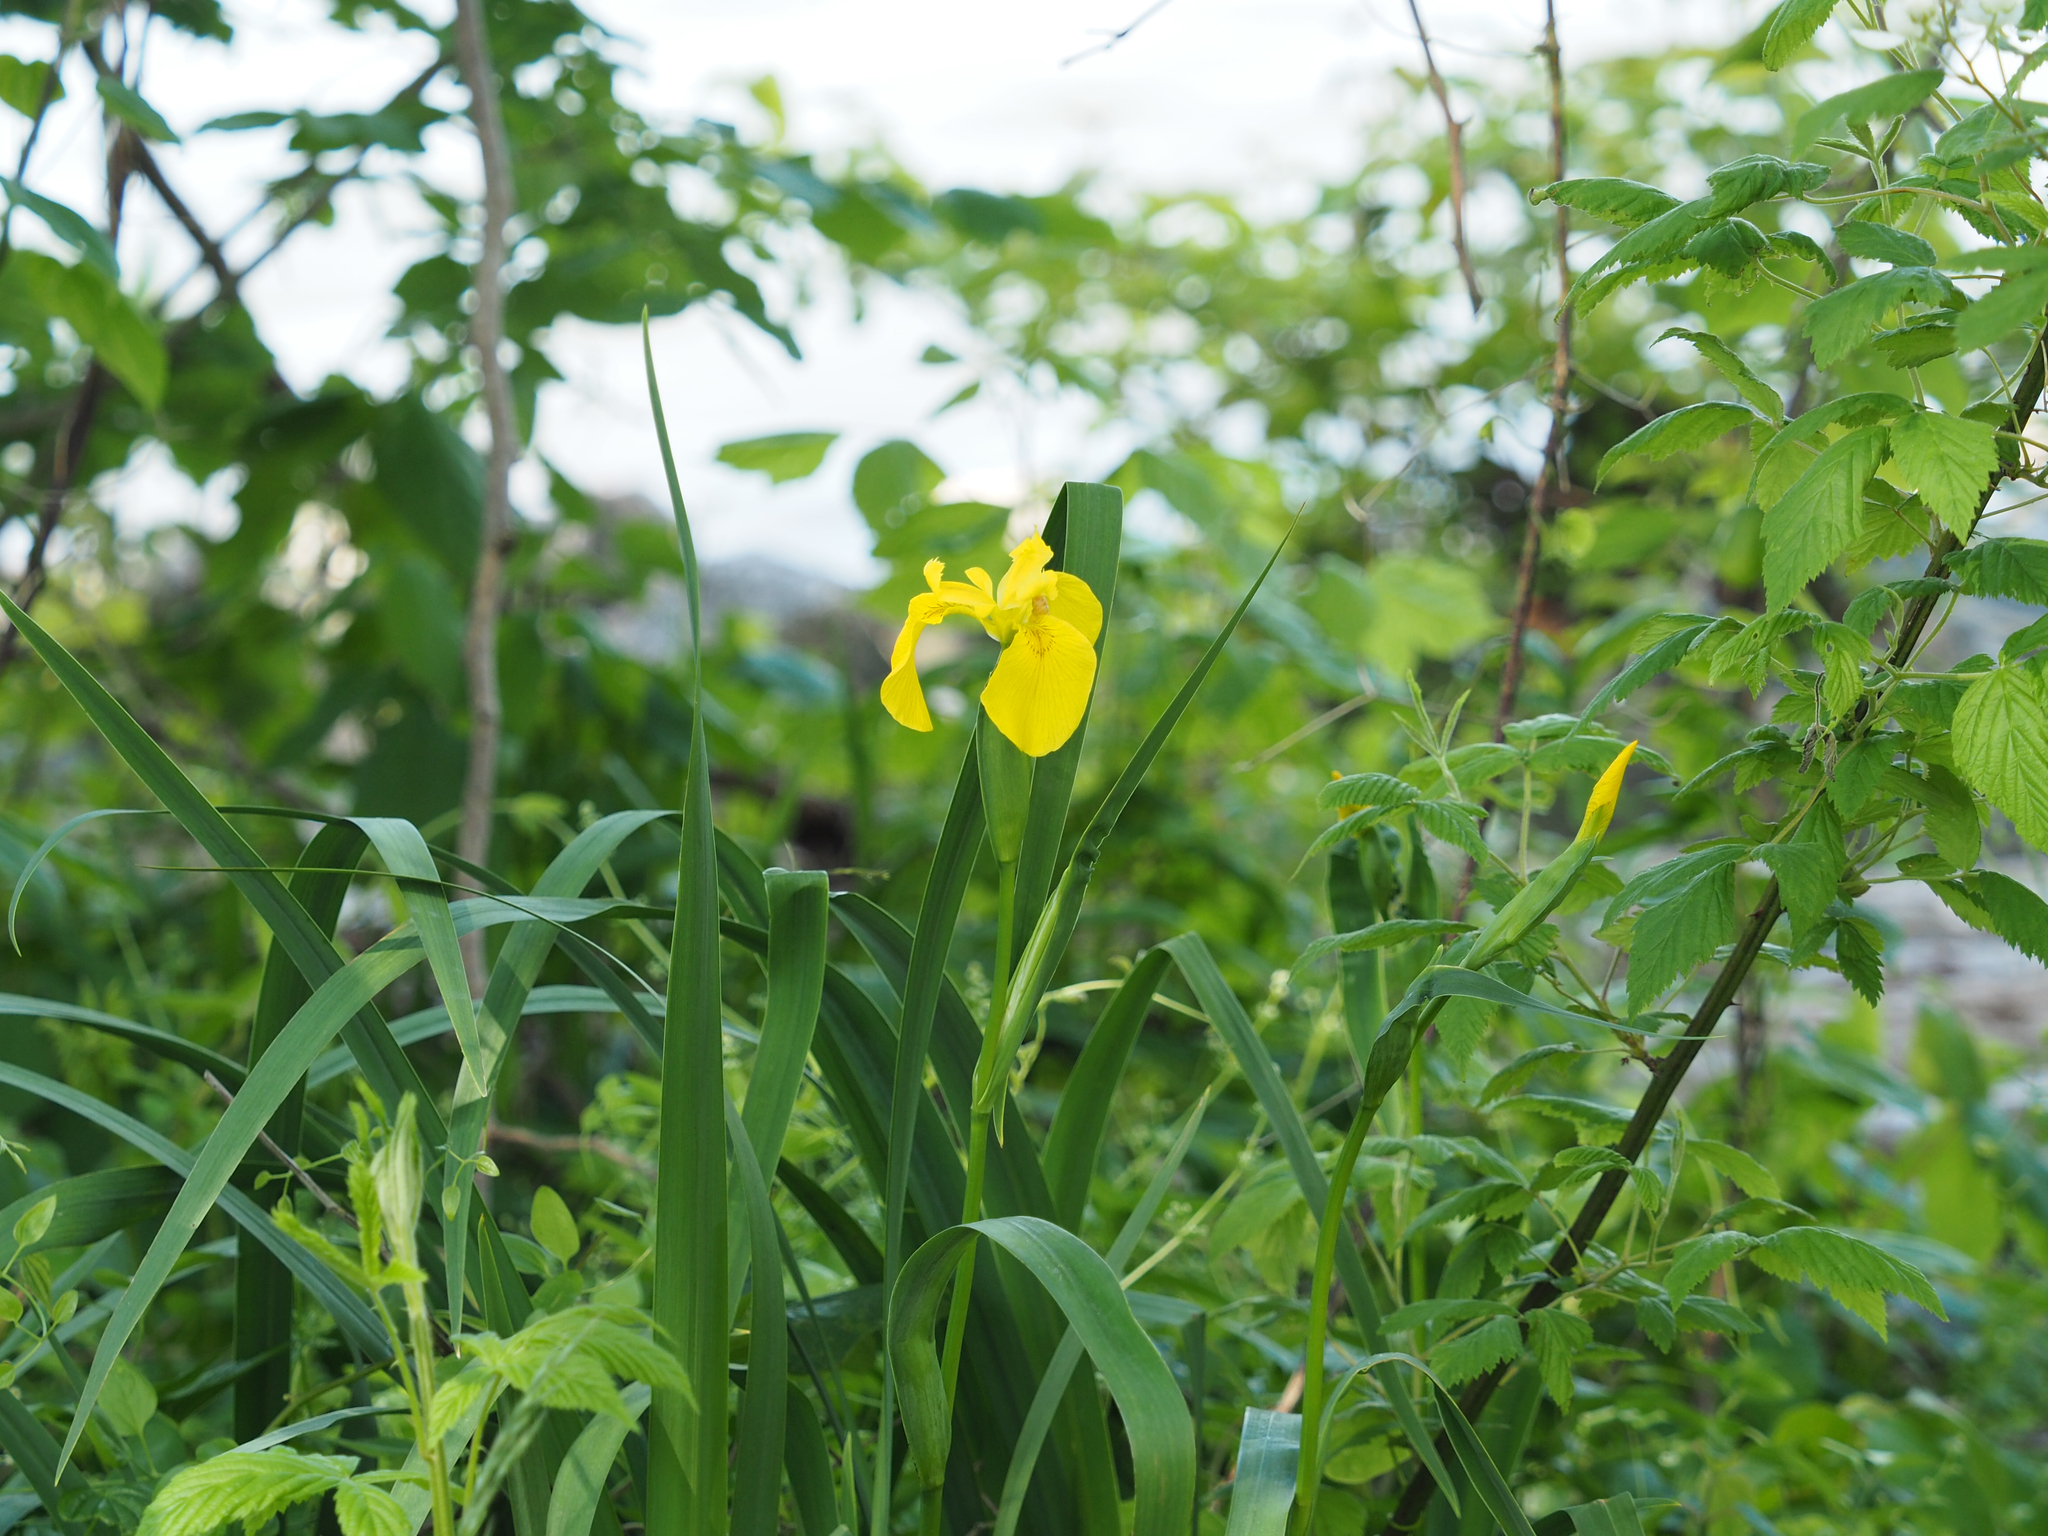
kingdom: Plantae
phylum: Tracheophyta
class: Liliopsida
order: Asparagales
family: Iridaceae
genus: Iris
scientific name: Iris pseudacorus
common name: Yellow flag
